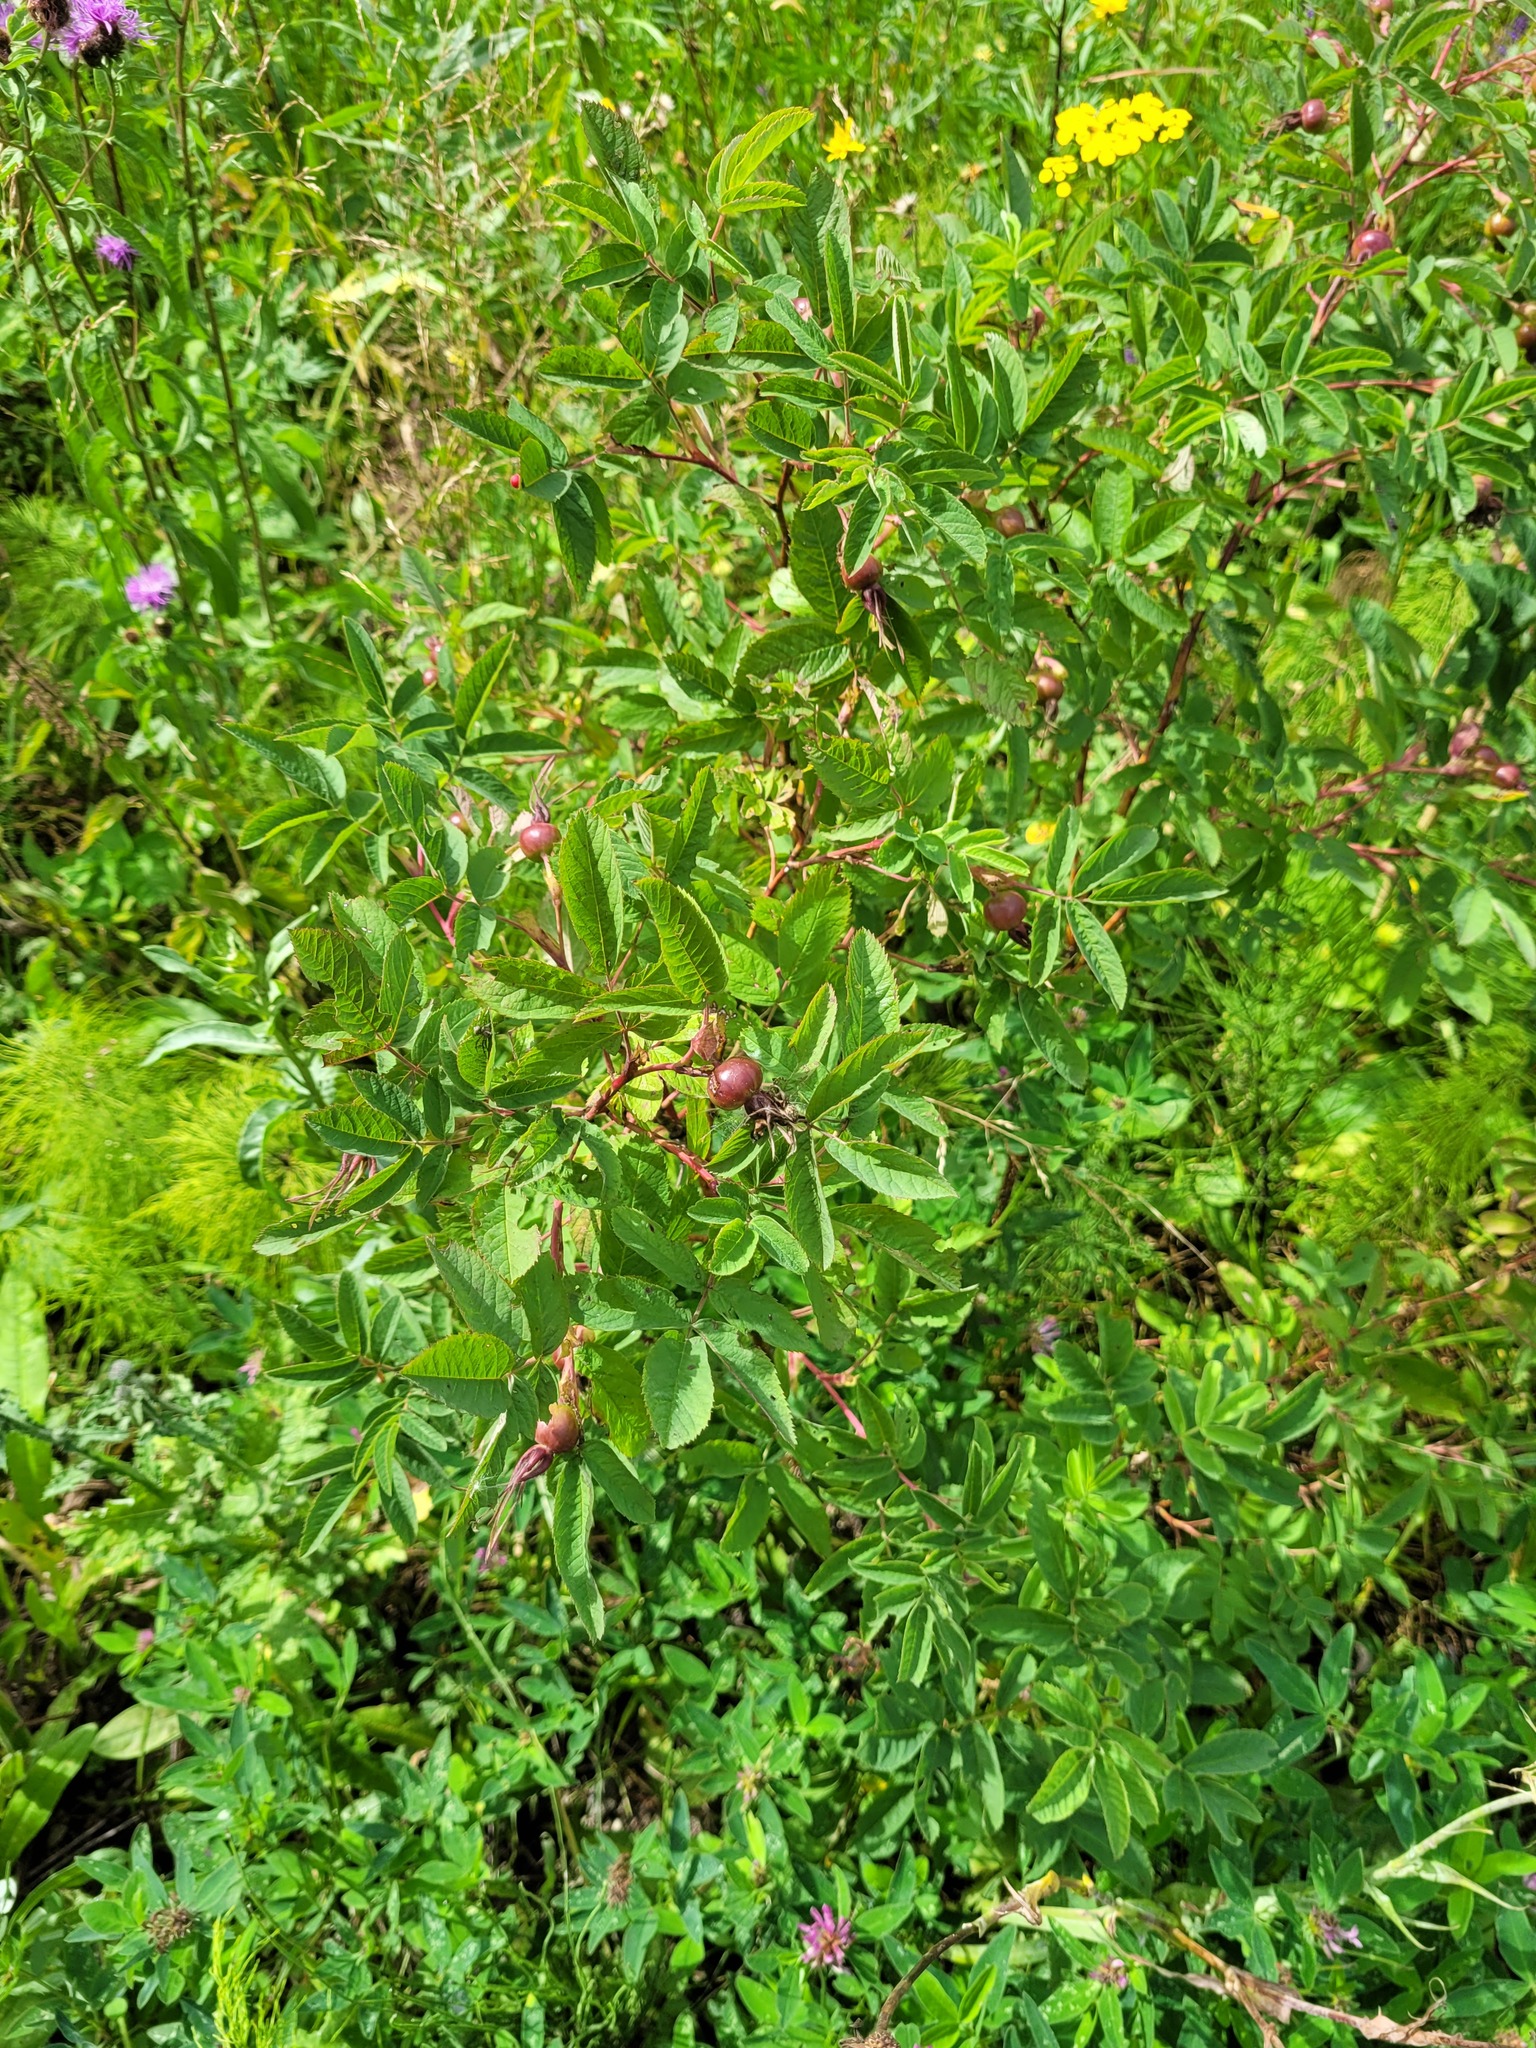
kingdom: Plantae
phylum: Tracheophyta
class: Magnoliopsida
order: Rosales
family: Rosaceae
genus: Rosa
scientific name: Rosa majalis
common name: Cinnamon rose
